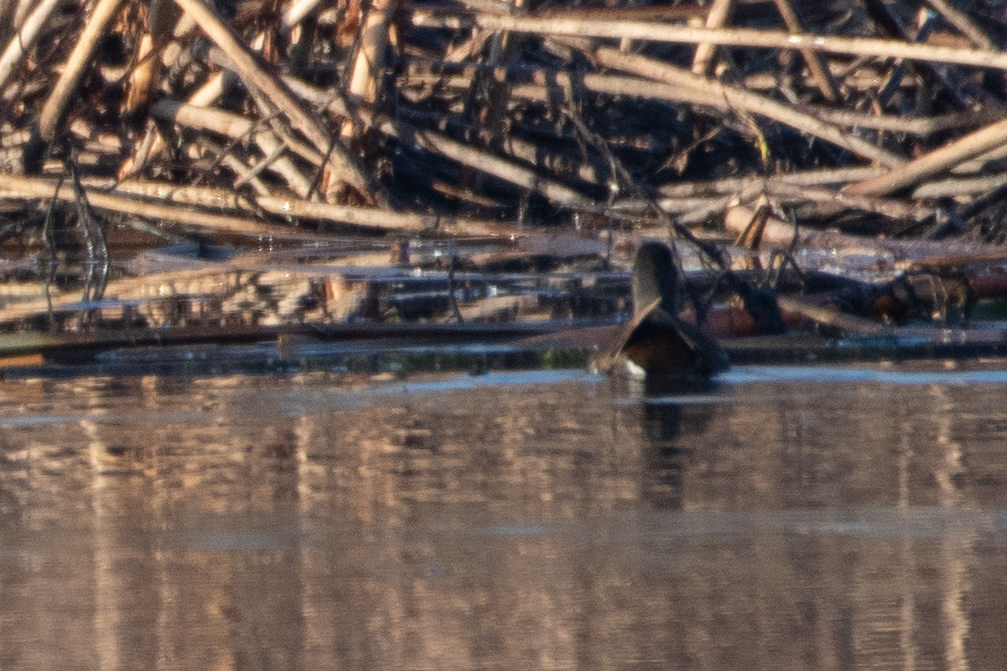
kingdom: Animalia
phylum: Chordata
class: Aves
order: Gruiformes
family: Rallidae
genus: Gallinula
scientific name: Gallinula chloropus
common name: Common moorhen
